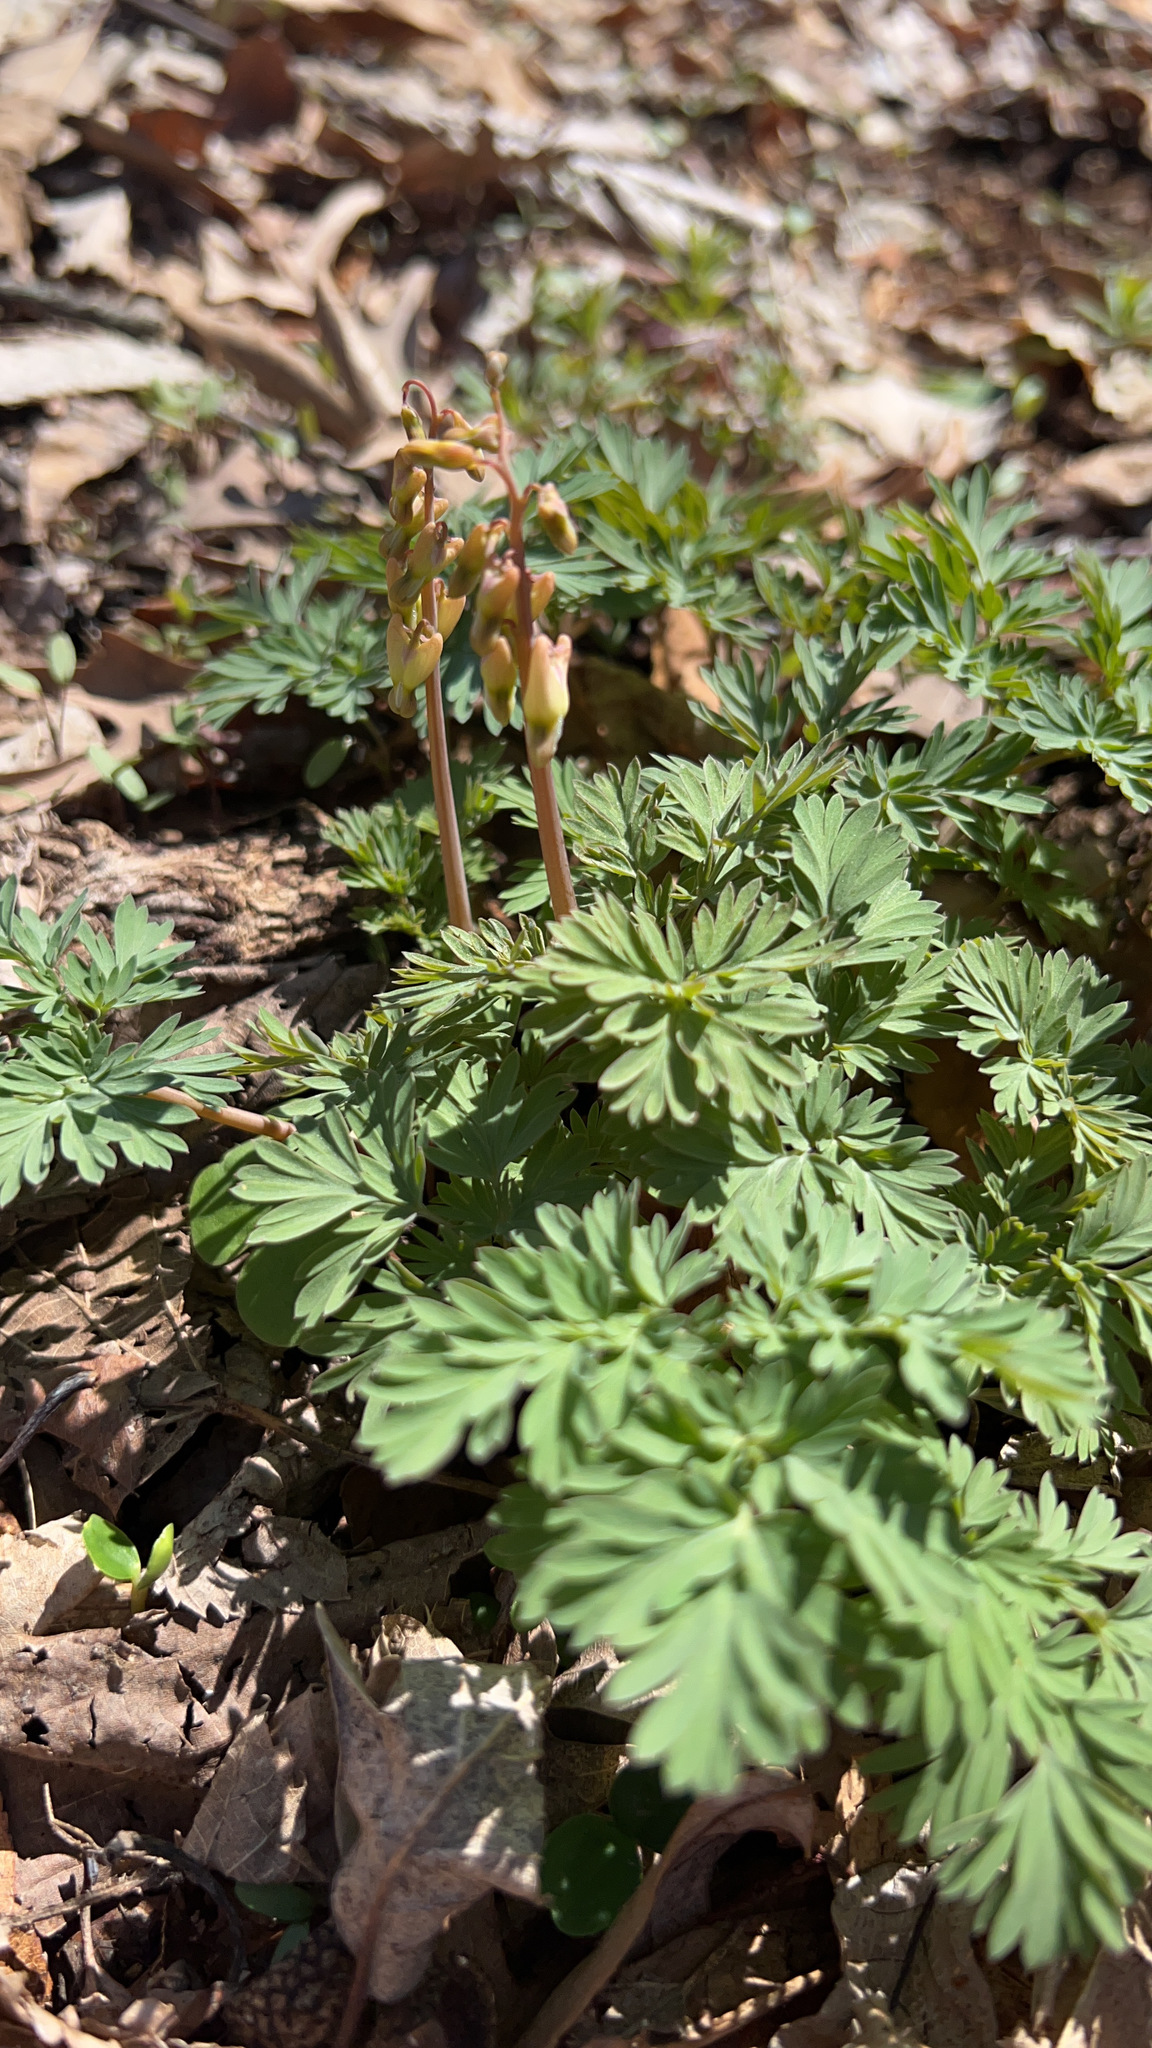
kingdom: Plantae
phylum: Tracheophyta
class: Magnoliopsida
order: Ranunculales
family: Papaveraceae
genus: Dicentra
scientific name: Dicentra cucullaria
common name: Dutchman's breeches
